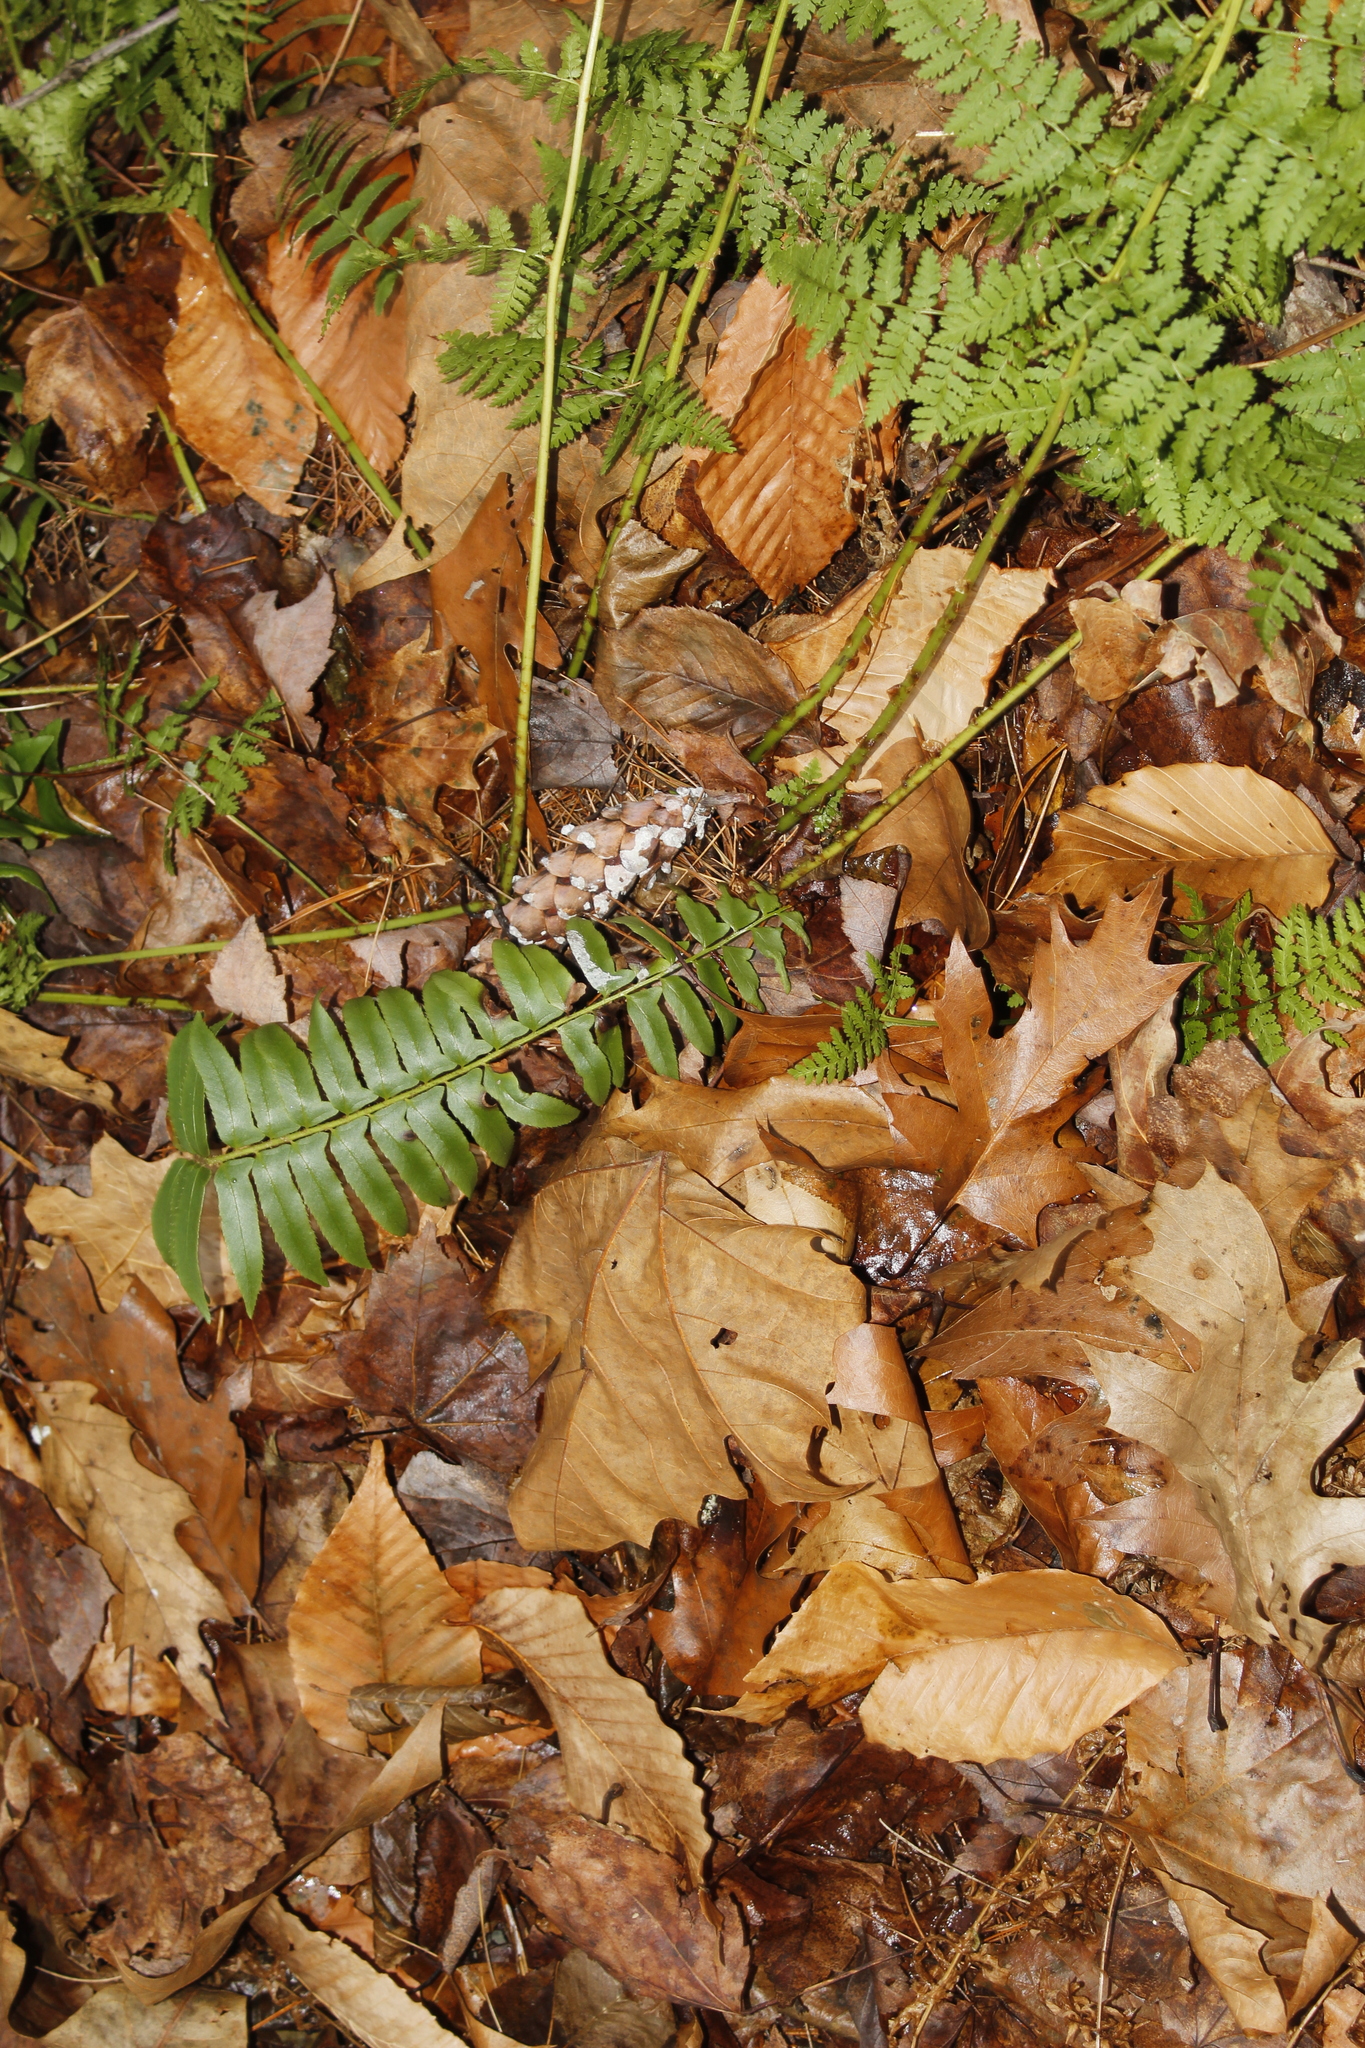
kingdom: Plantae
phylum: Tracheophyta
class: Polypodiopsida
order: Polypodiales
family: Dryopteridaceae
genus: Polystichum
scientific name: Polystichum acrostichoides
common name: Christmas fern
